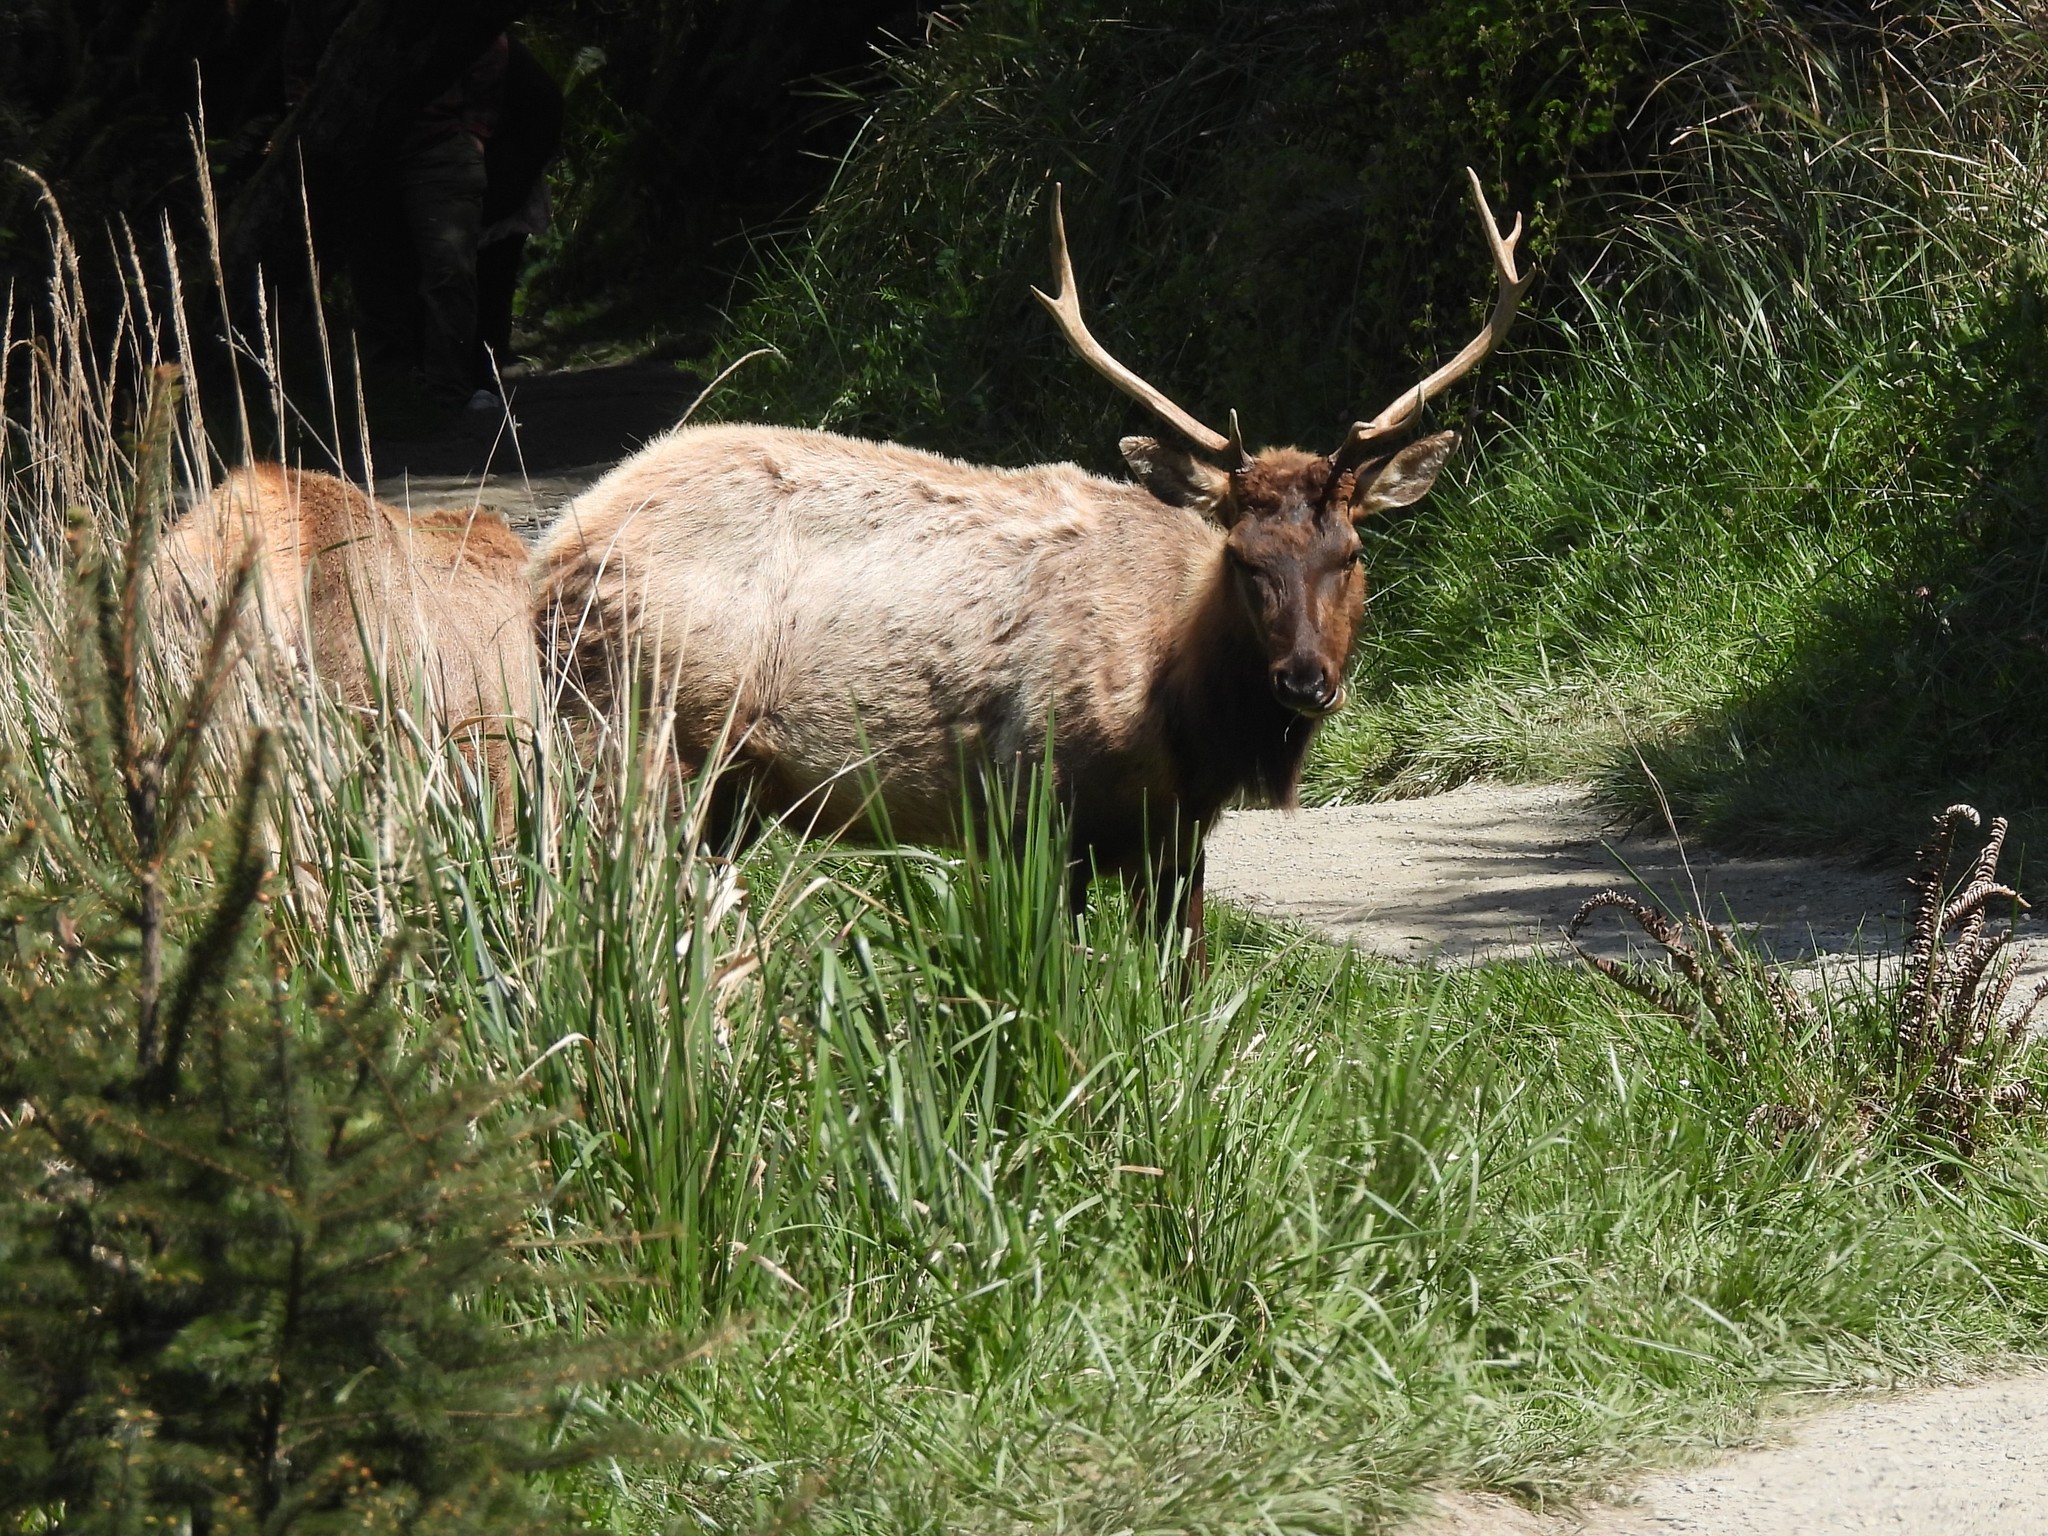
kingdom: Animalia
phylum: Chordata
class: Mammalia
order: Artiodactyla
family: Cervidae
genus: Cervus
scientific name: Cervus elaphus
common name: Red deer
